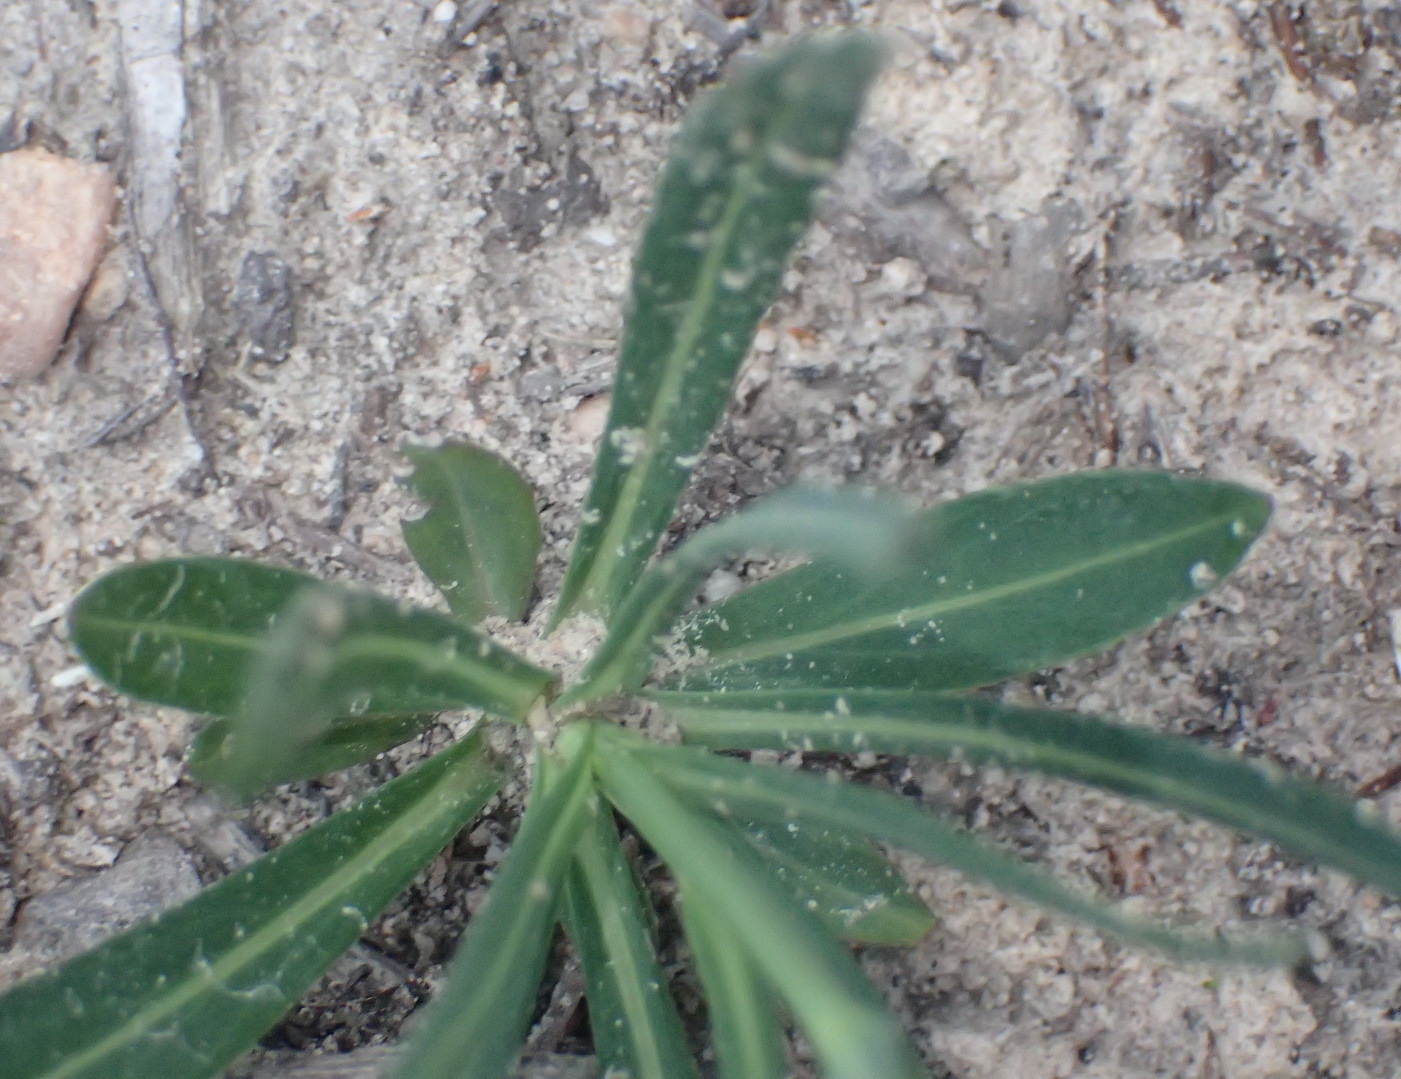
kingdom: Plantae
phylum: Tracheophyta
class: Magnoliopsida
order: Asterales
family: Asteraceae
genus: Senecio
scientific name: Senecio othonniflorus
